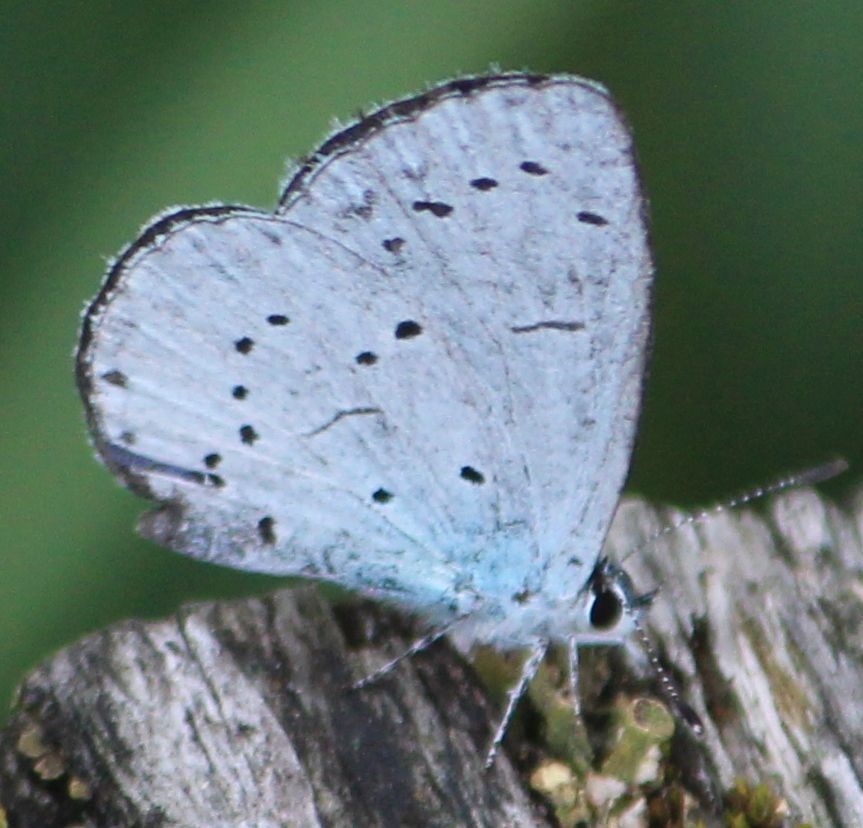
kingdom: Animalia
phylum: Arthropoda
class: Insecta
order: Lepidoptera
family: Lycaenidae
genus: Celastrina
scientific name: Celastrina argiolus
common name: Holly blue
